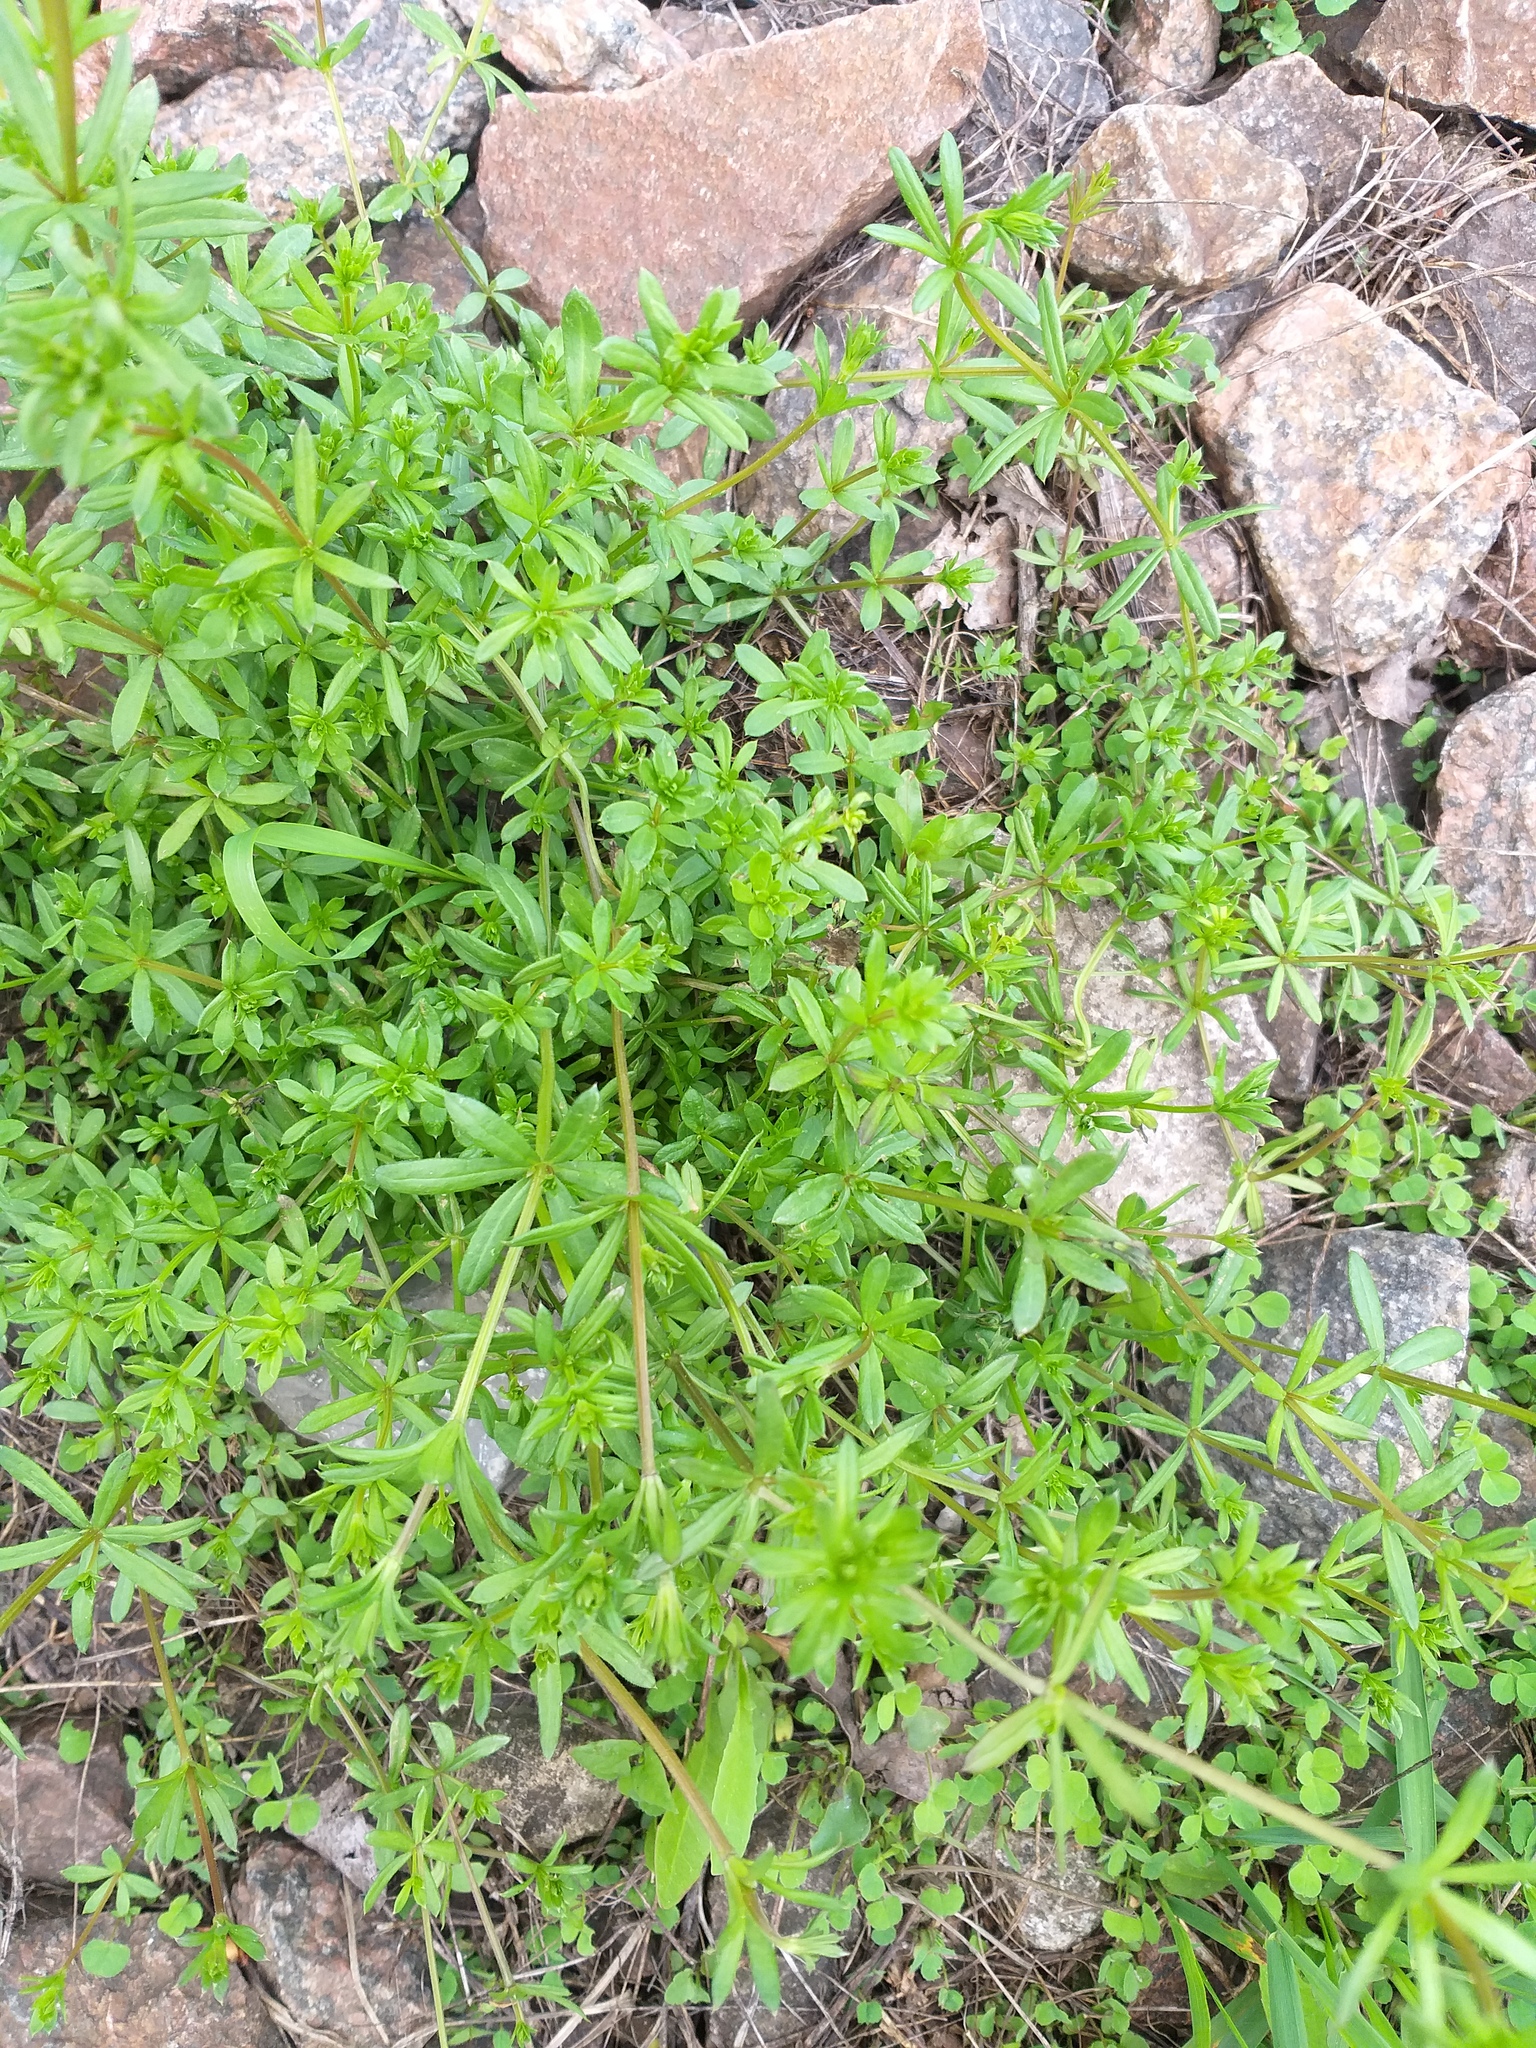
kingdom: Plantae
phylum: Tracheophyta
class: Magnoliopsida
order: Gentianales
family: Rubiaceae
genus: Galium
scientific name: Galium tricornutum
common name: Corn cleavers
